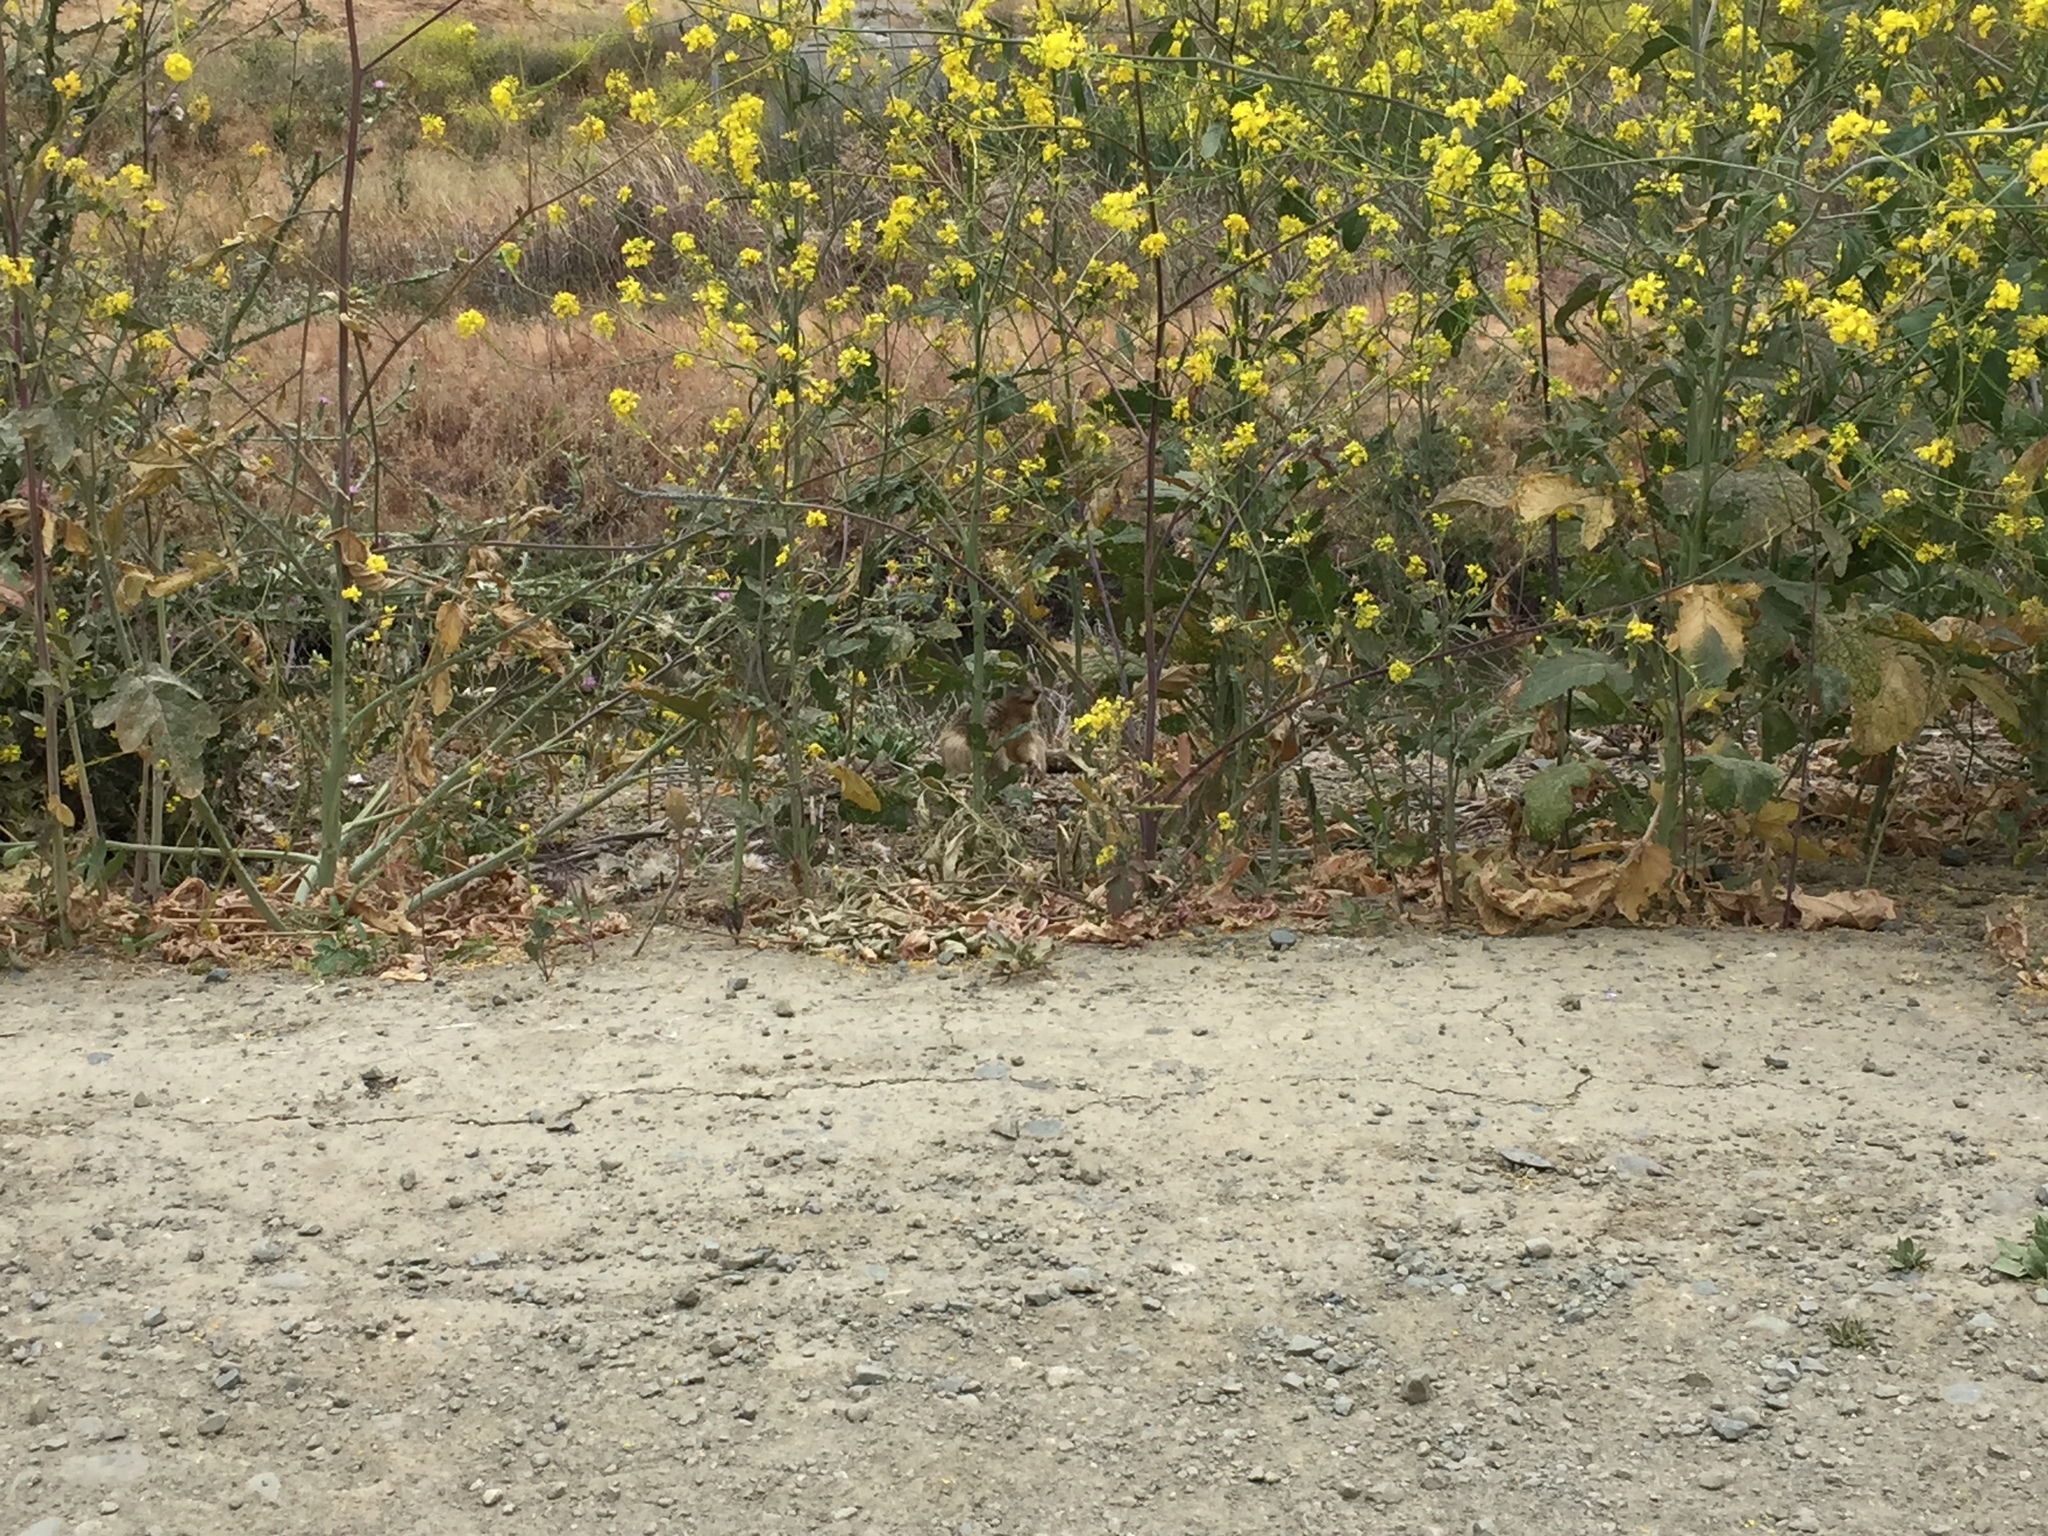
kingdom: Animalia
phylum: Chordata
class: Mammalia
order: Rodentia
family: Sciuridae
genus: Otospermophilus
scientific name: Otospermophilus beecheyi
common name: California ground squirrel
